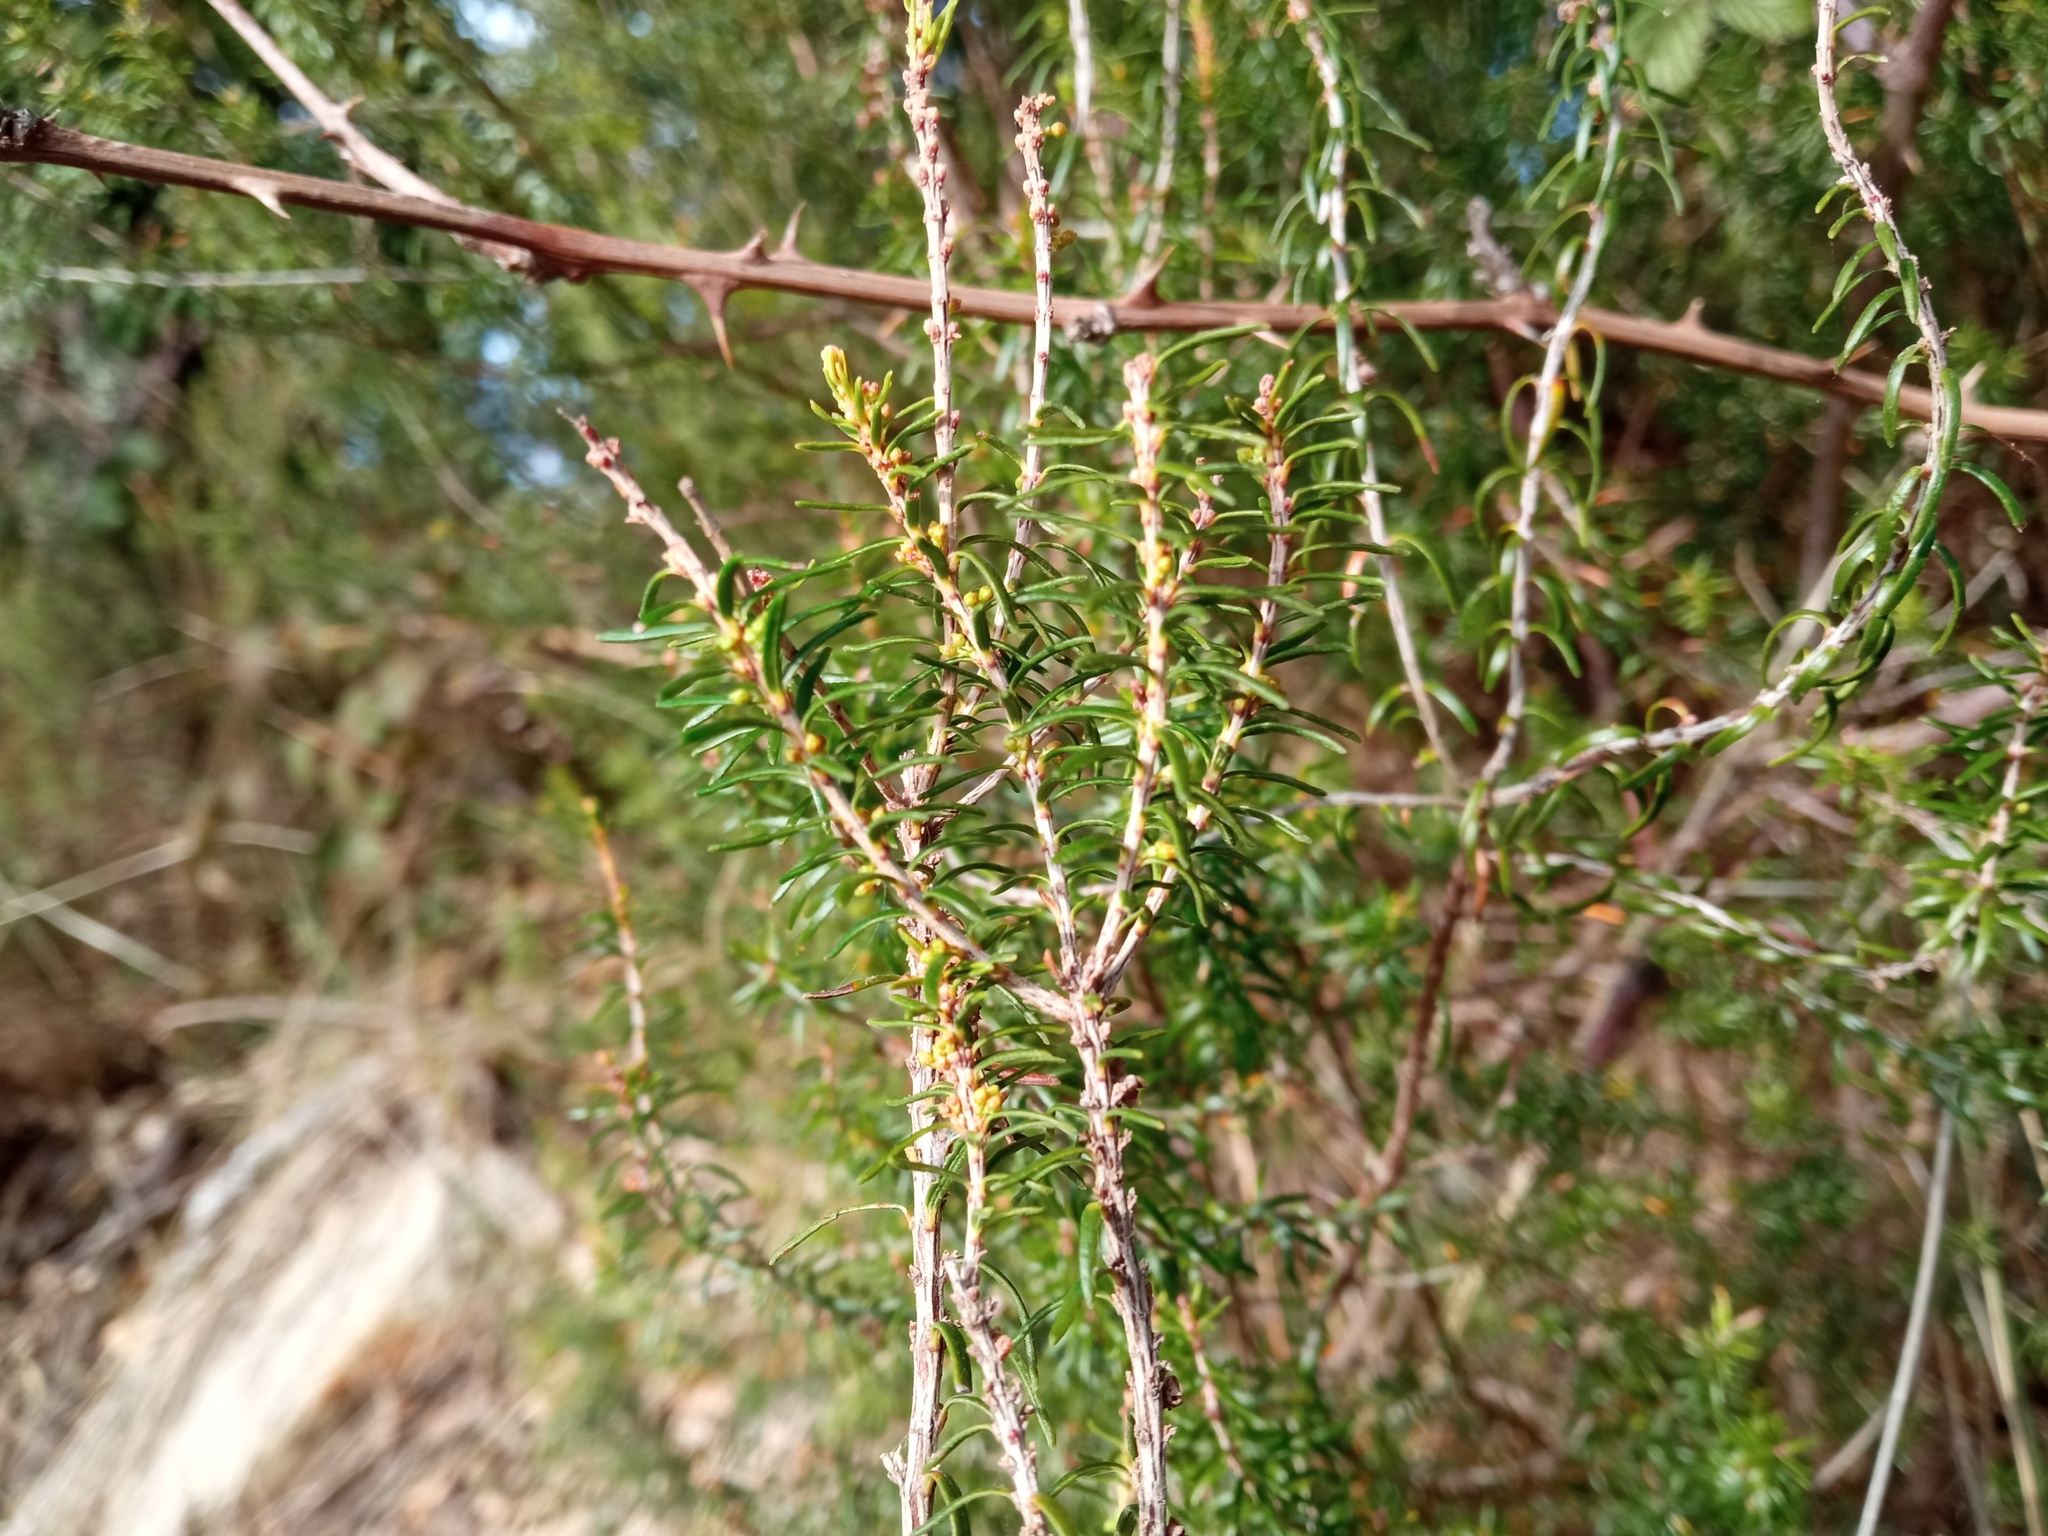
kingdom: Plantae
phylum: Tracheophyta
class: Magnoliopsida
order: Ericales
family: Ericaceae
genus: Erica
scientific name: Erica scoparia
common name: Green heather
